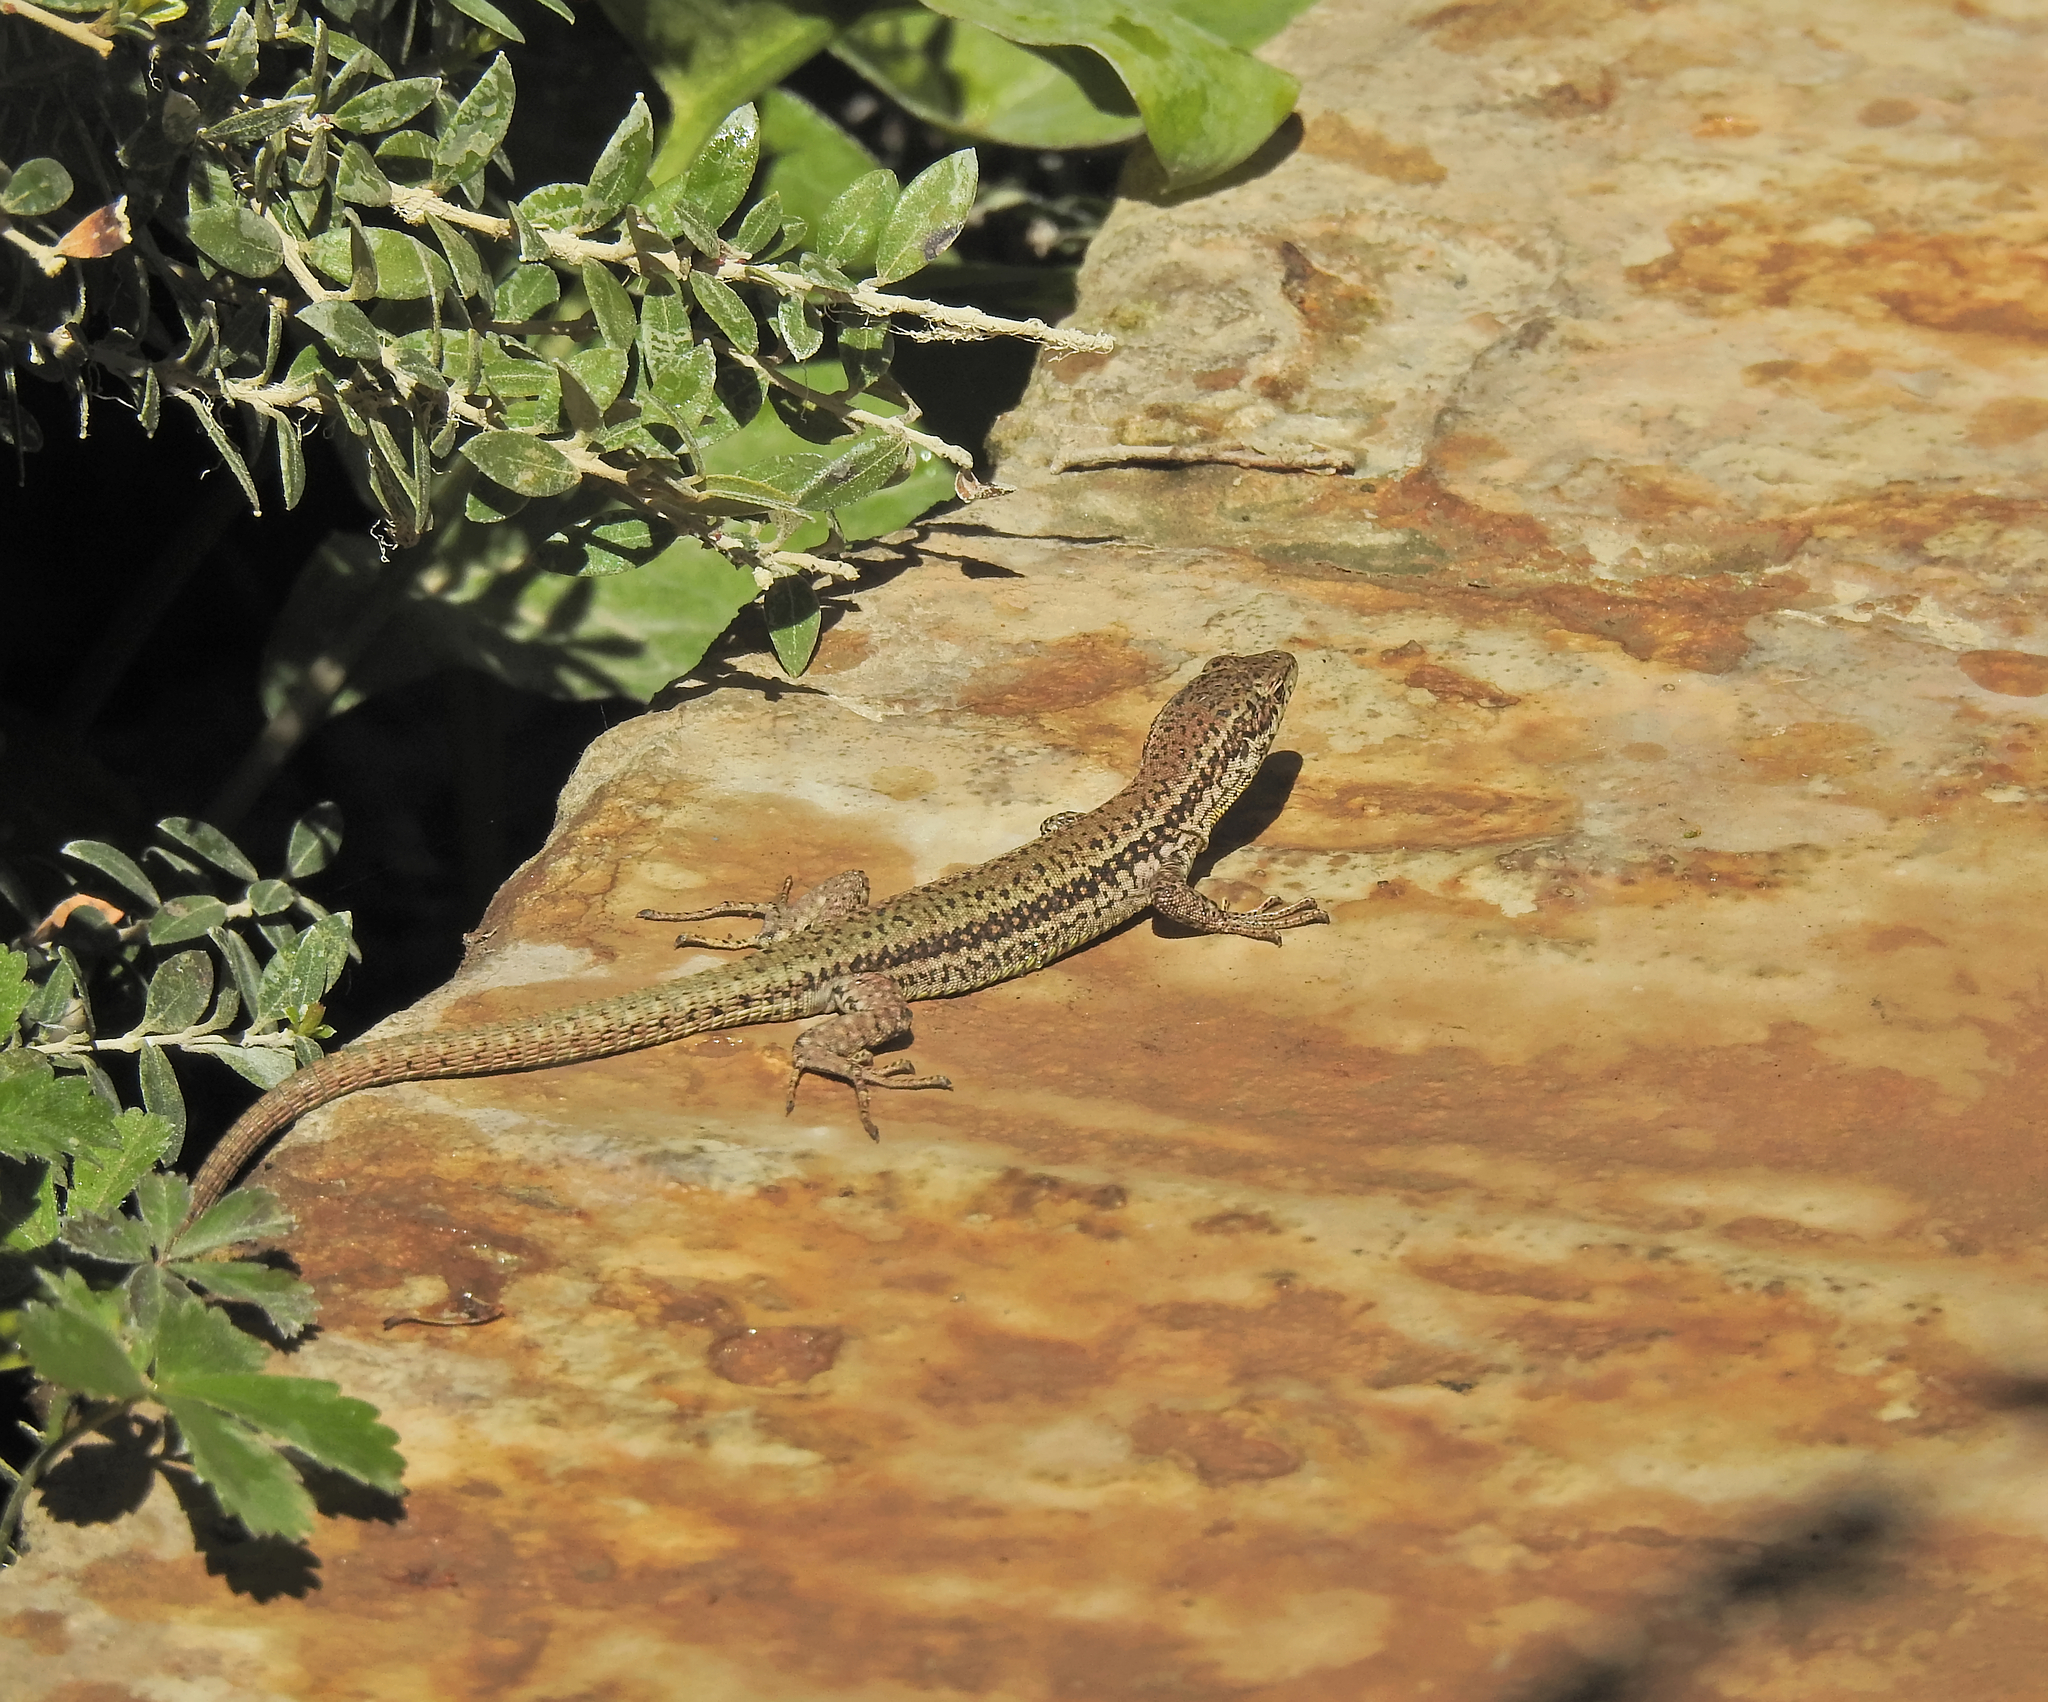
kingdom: Animalia
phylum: Chordata
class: Squamata
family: Lacertidae
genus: Podarcis
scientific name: Podarcis vaucheri
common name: Vaucher's wall lizard
